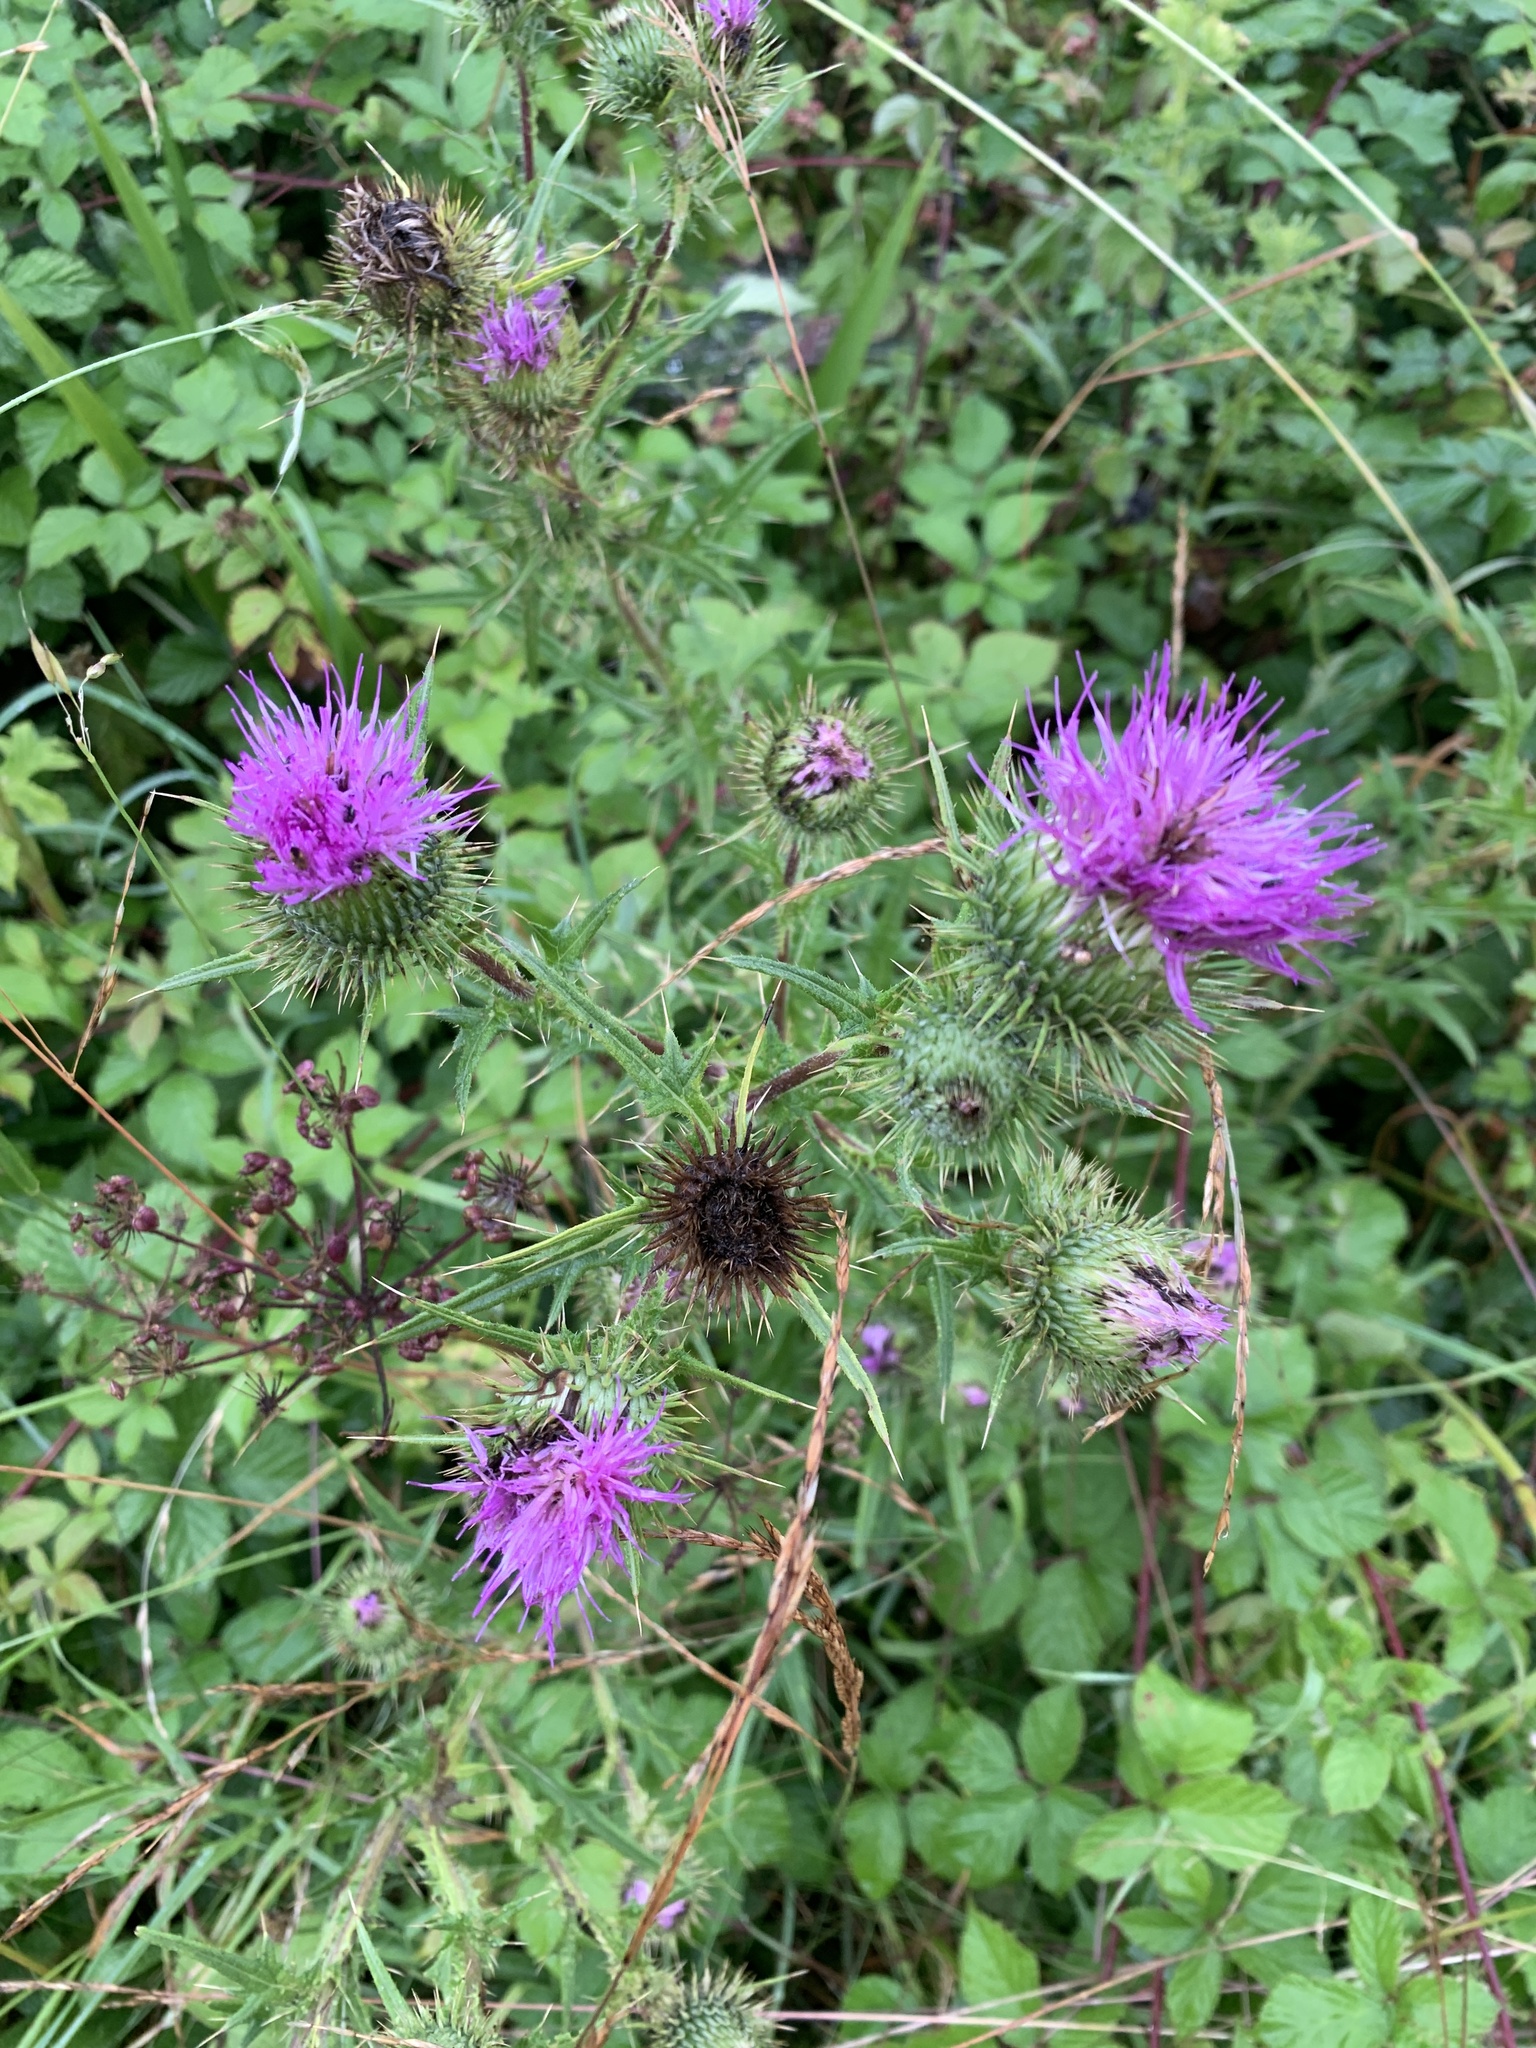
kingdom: Plantae
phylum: Tracheophyta
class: Magnoliopsida
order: Asterales
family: Asteraceae
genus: Cirsium
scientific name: Cirsium vulgare
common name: Bull thistle
